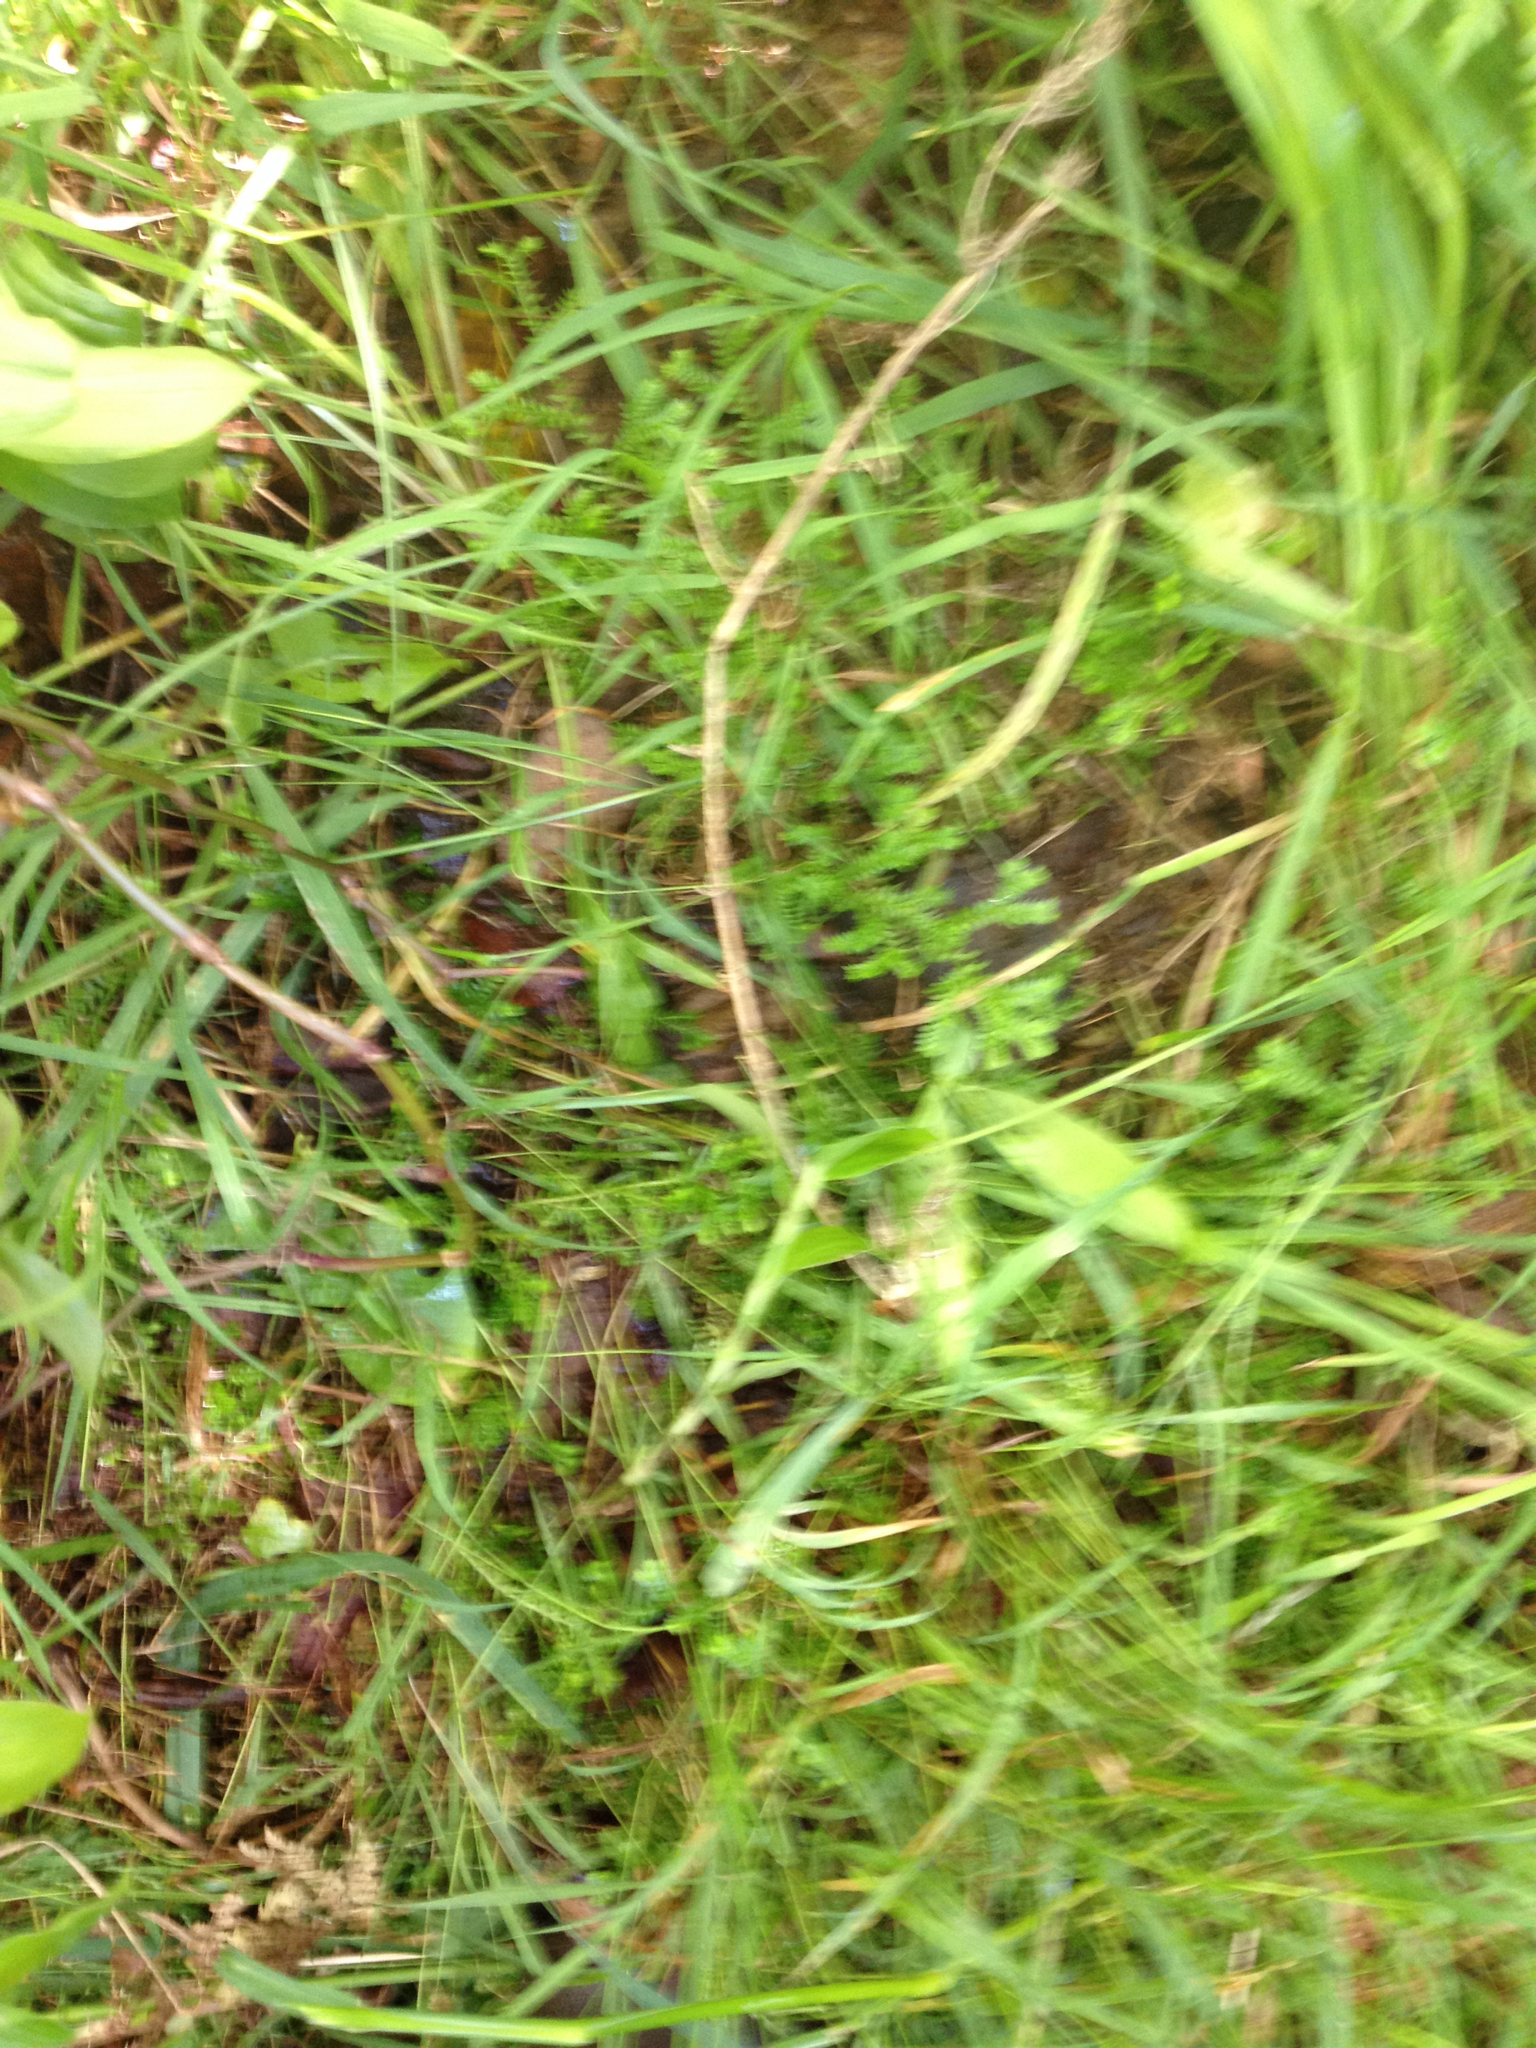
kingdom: Plantae
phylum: Tracheophyta
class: Lycopodiopsida
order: Selaginellales
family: Selaginellaceae
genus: Selaginella
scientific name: Selaginella kraussiana
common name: Krauss' spikemoss
